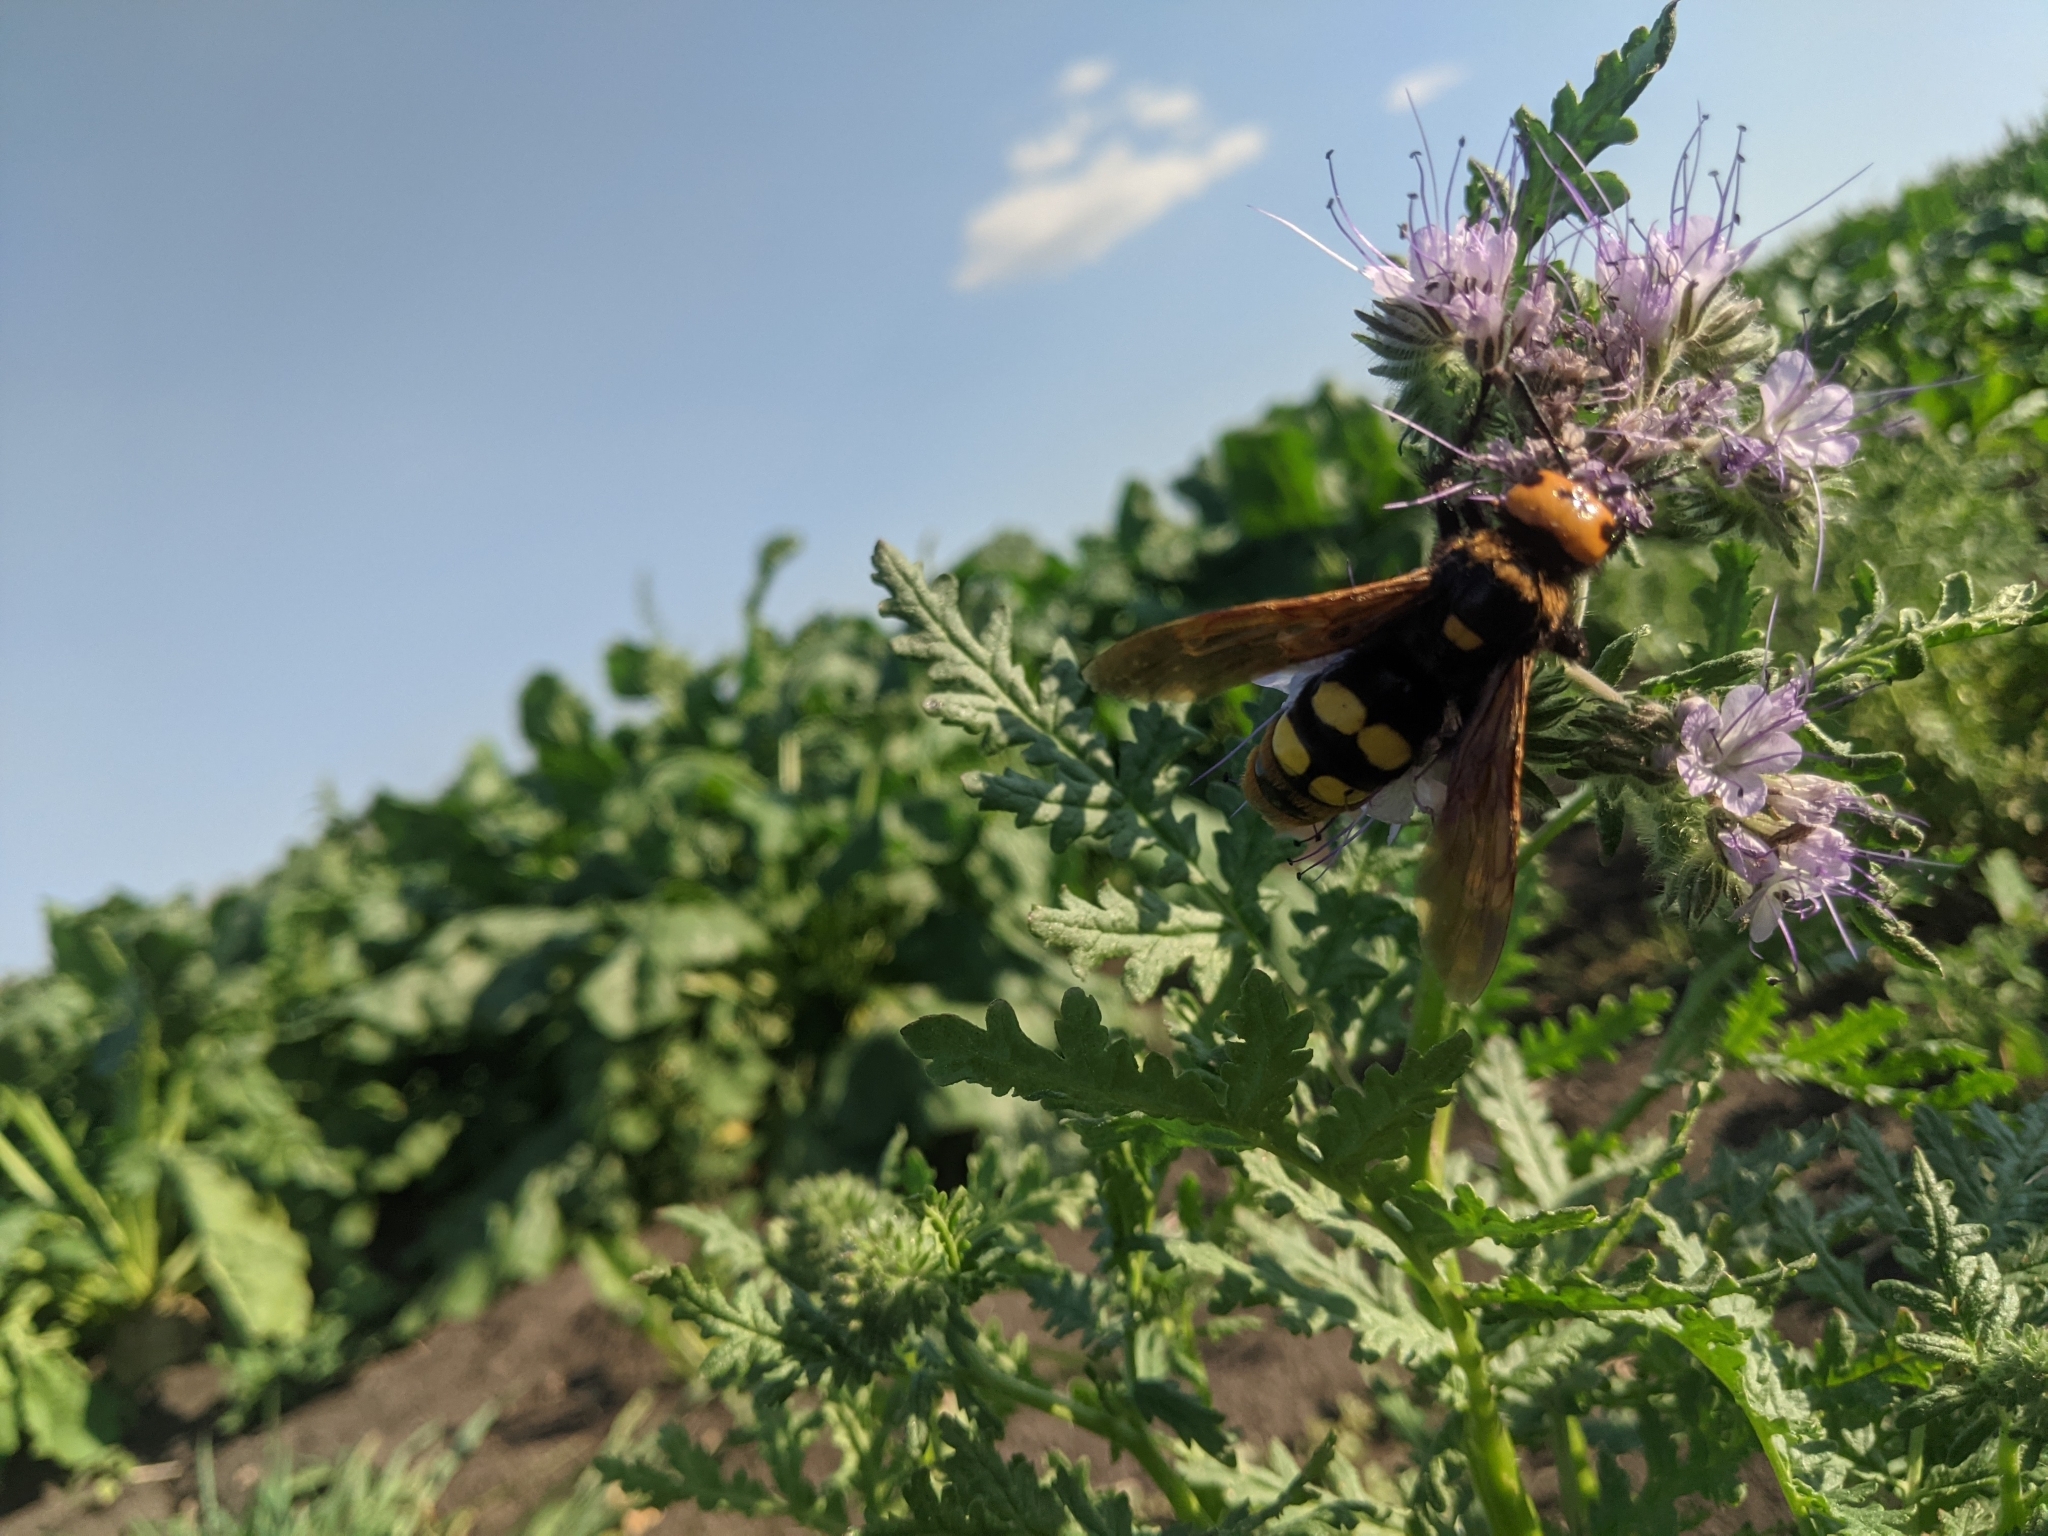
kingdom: Animalia
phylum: Arthropoda
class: Insecta
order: Hymenoptera
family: Scoliidae
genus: Megascolia
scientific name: Megascolia maculata
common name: Mammoth wasp
